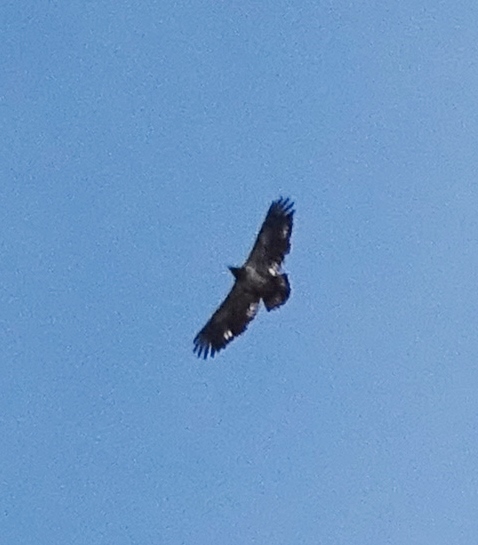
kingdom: Animalia
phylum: Chordata
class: Aves
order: Accipitriformes
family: Accipitridae
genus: Haliaeetus
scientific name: Haliaeetus leucocephalus
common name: Bald eagle
